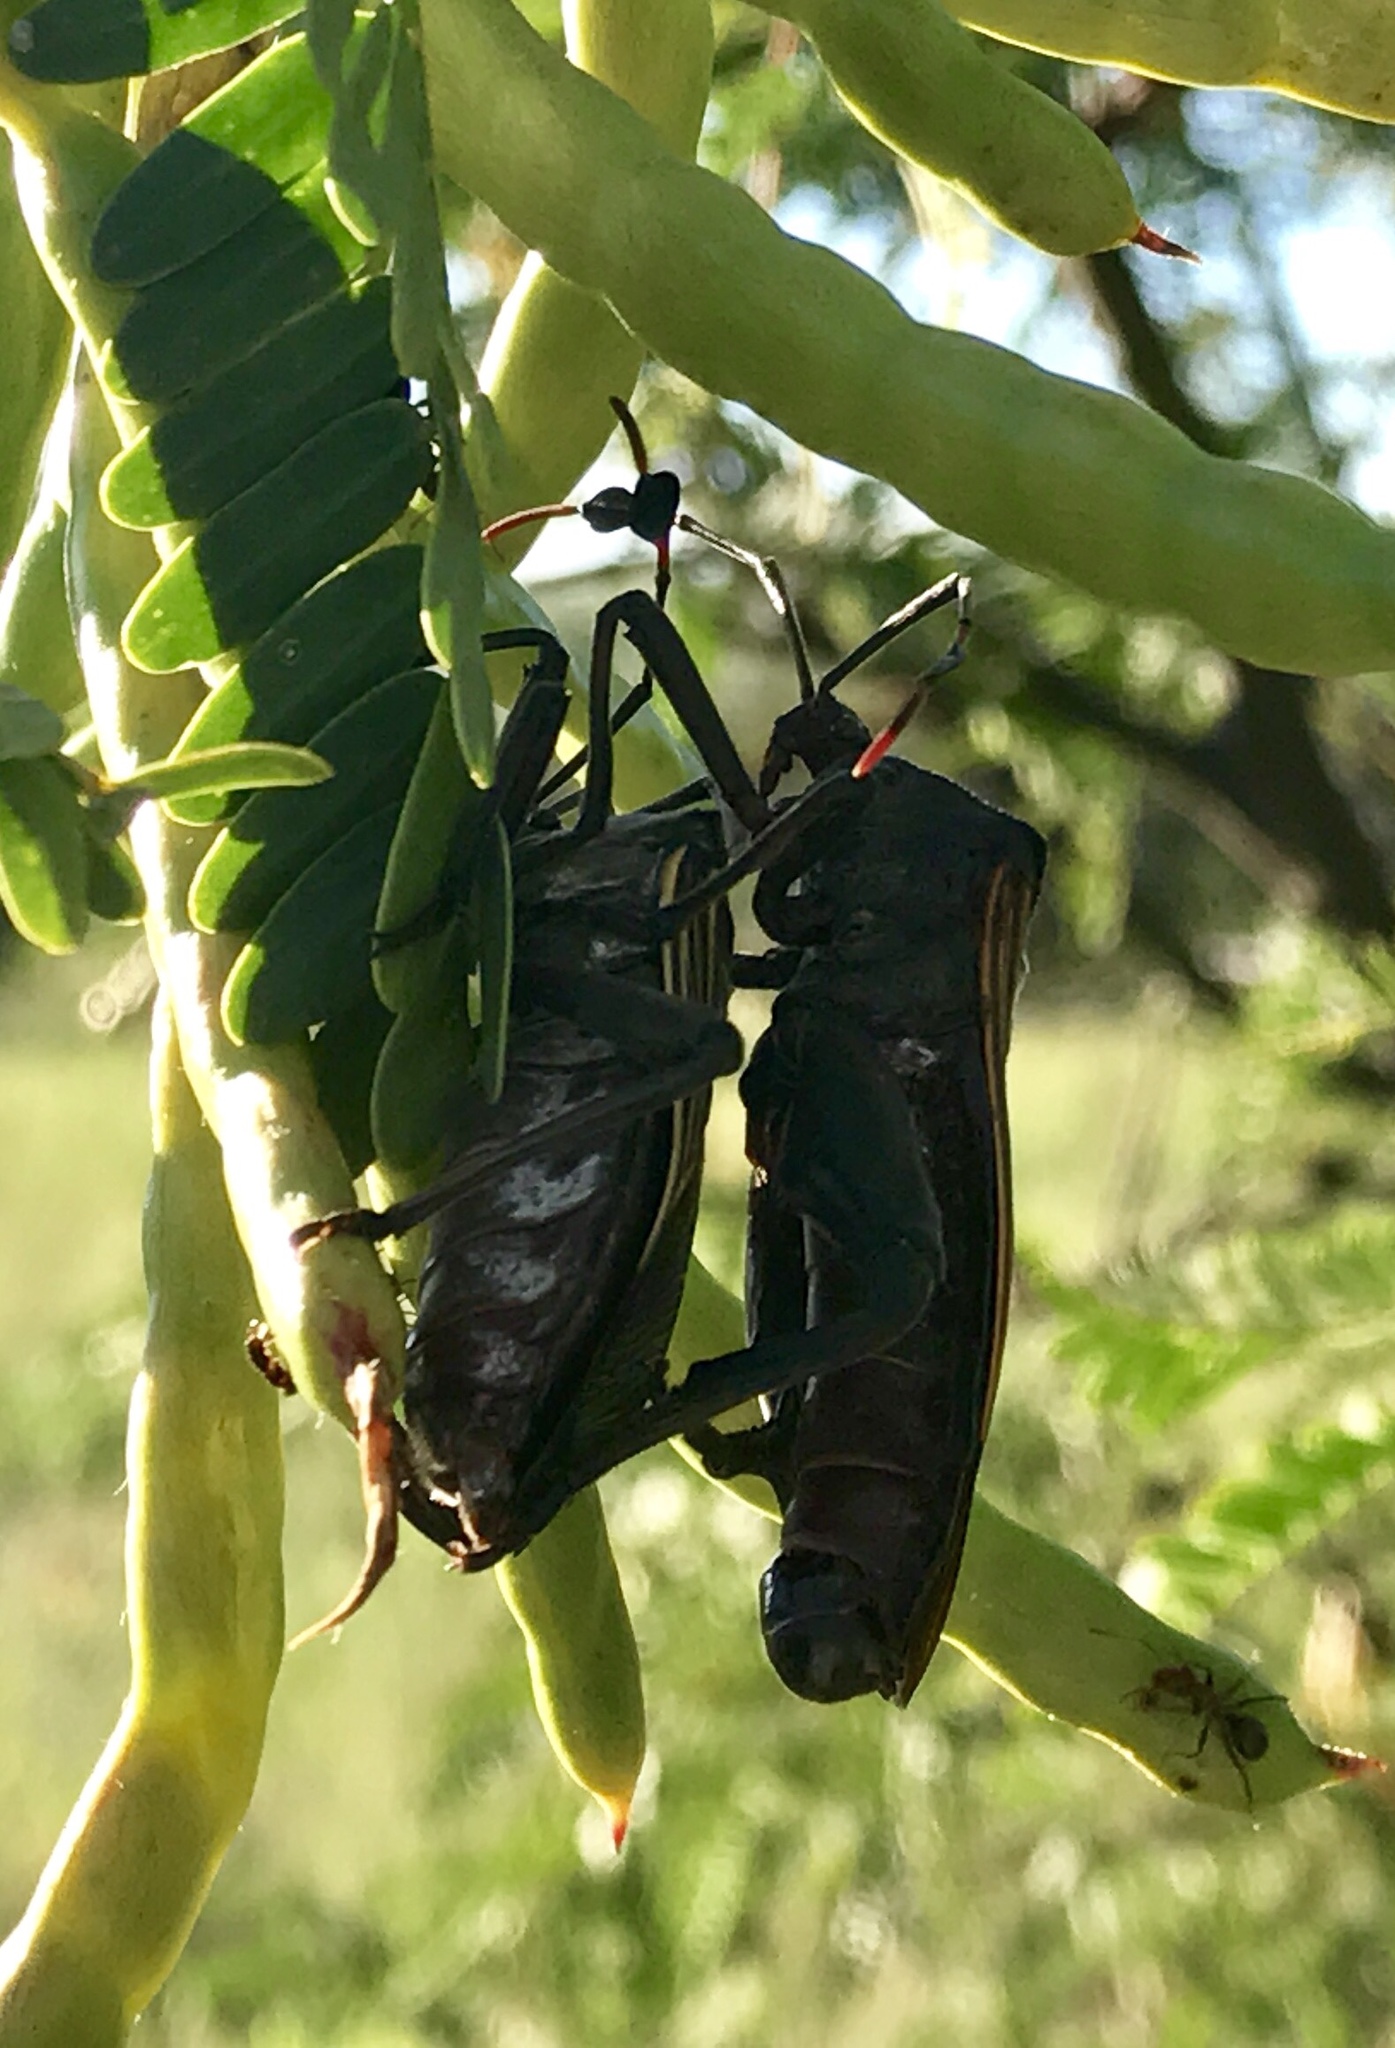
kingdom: Animalia
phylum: Arthropoda
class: Insecta
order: Hemiptera
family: Coreidae
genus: Thasus
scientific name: Thasus neocalifornicus
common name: Giant mesquite bug
